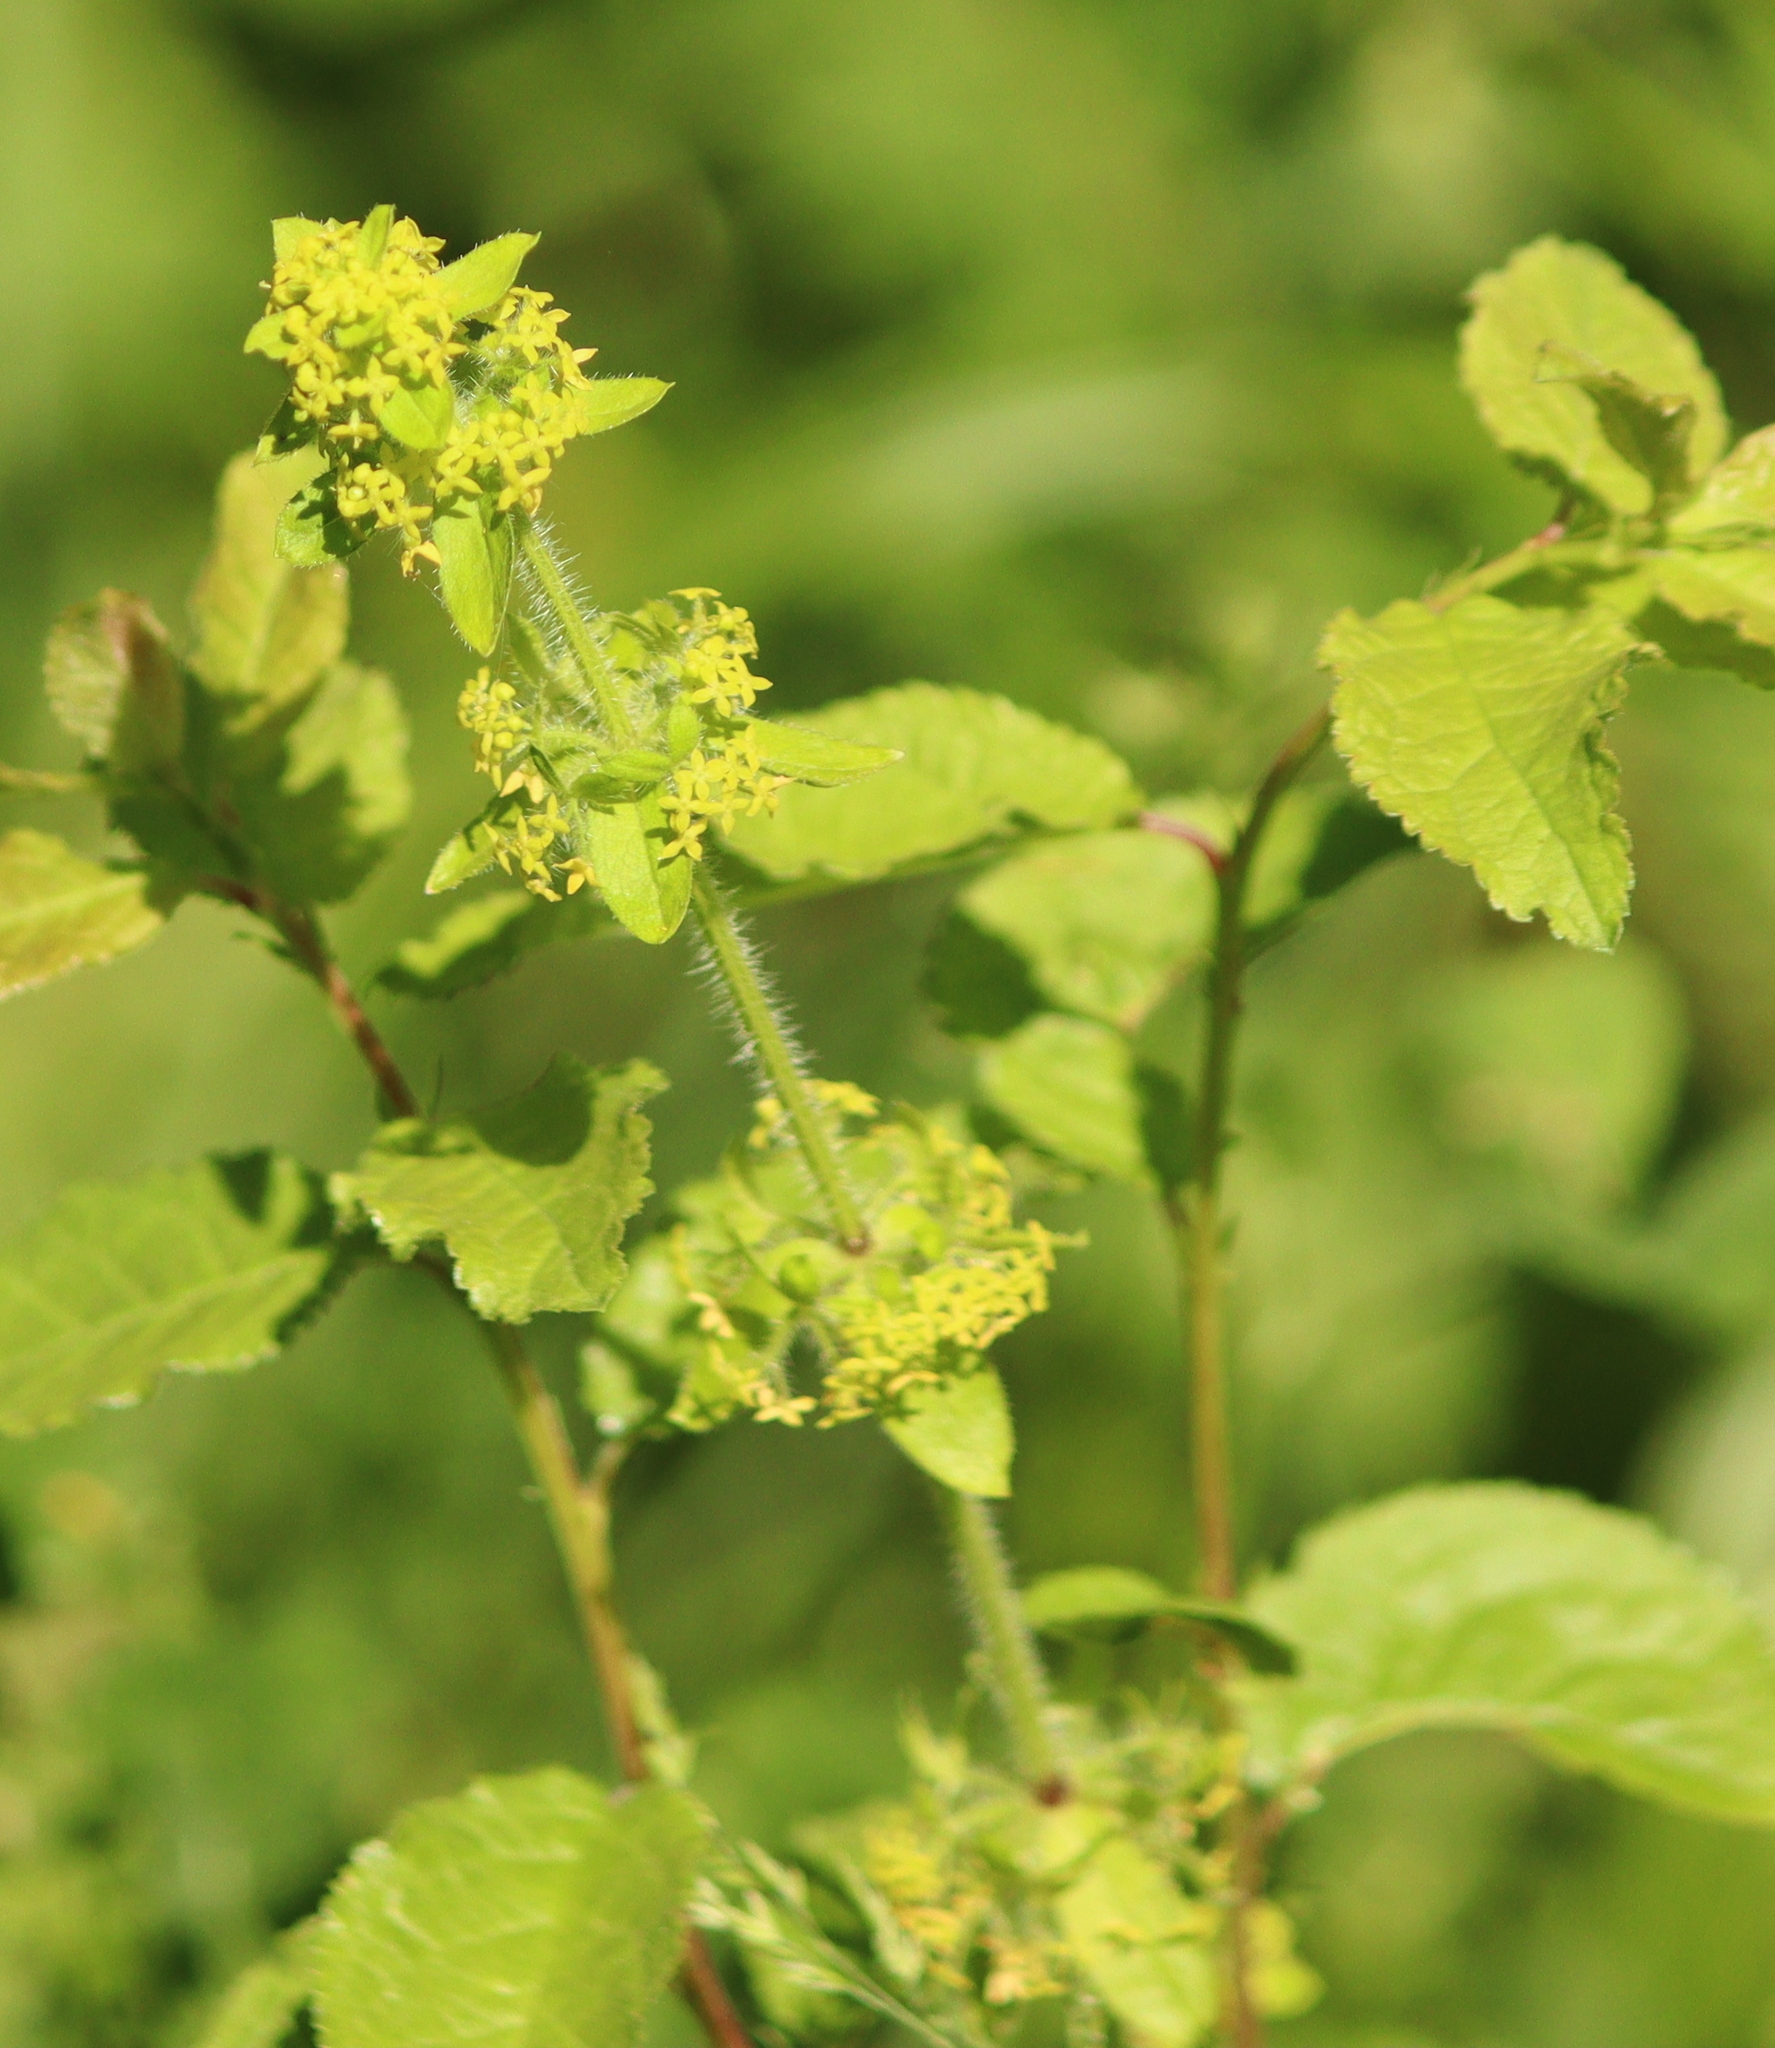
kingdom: Plantae
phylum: Tracheophyta
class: Magnoliopsida
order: Gentianales
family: Rubiaceae
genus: Cruciata
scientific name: Cruciata laevipes
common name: Crosswort
